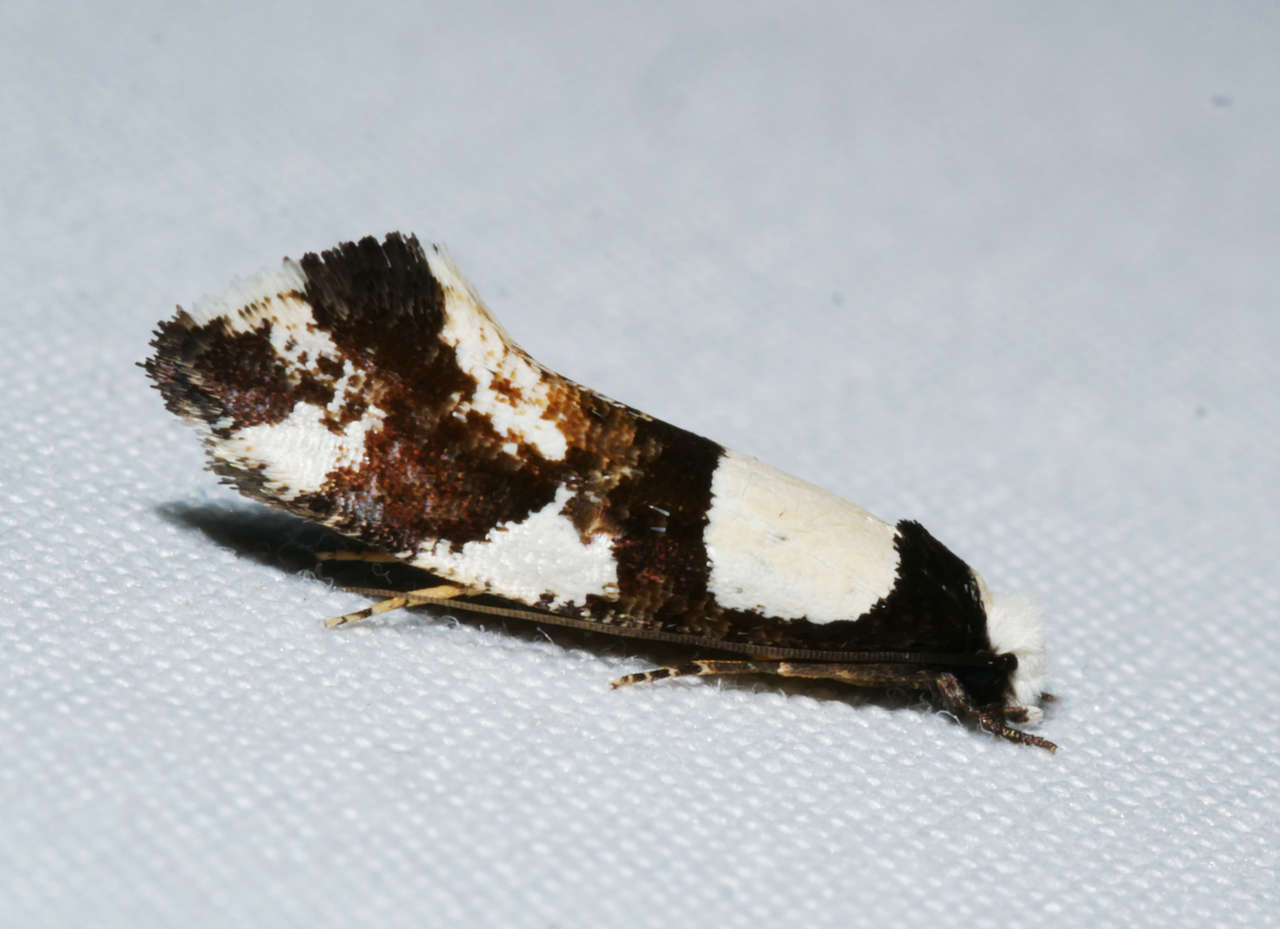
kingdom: Animalia
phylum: Arthropoda
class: Insecta
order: Lepidoptera
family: Tineidae
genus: Monopis
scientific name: Monopis icterogastra
